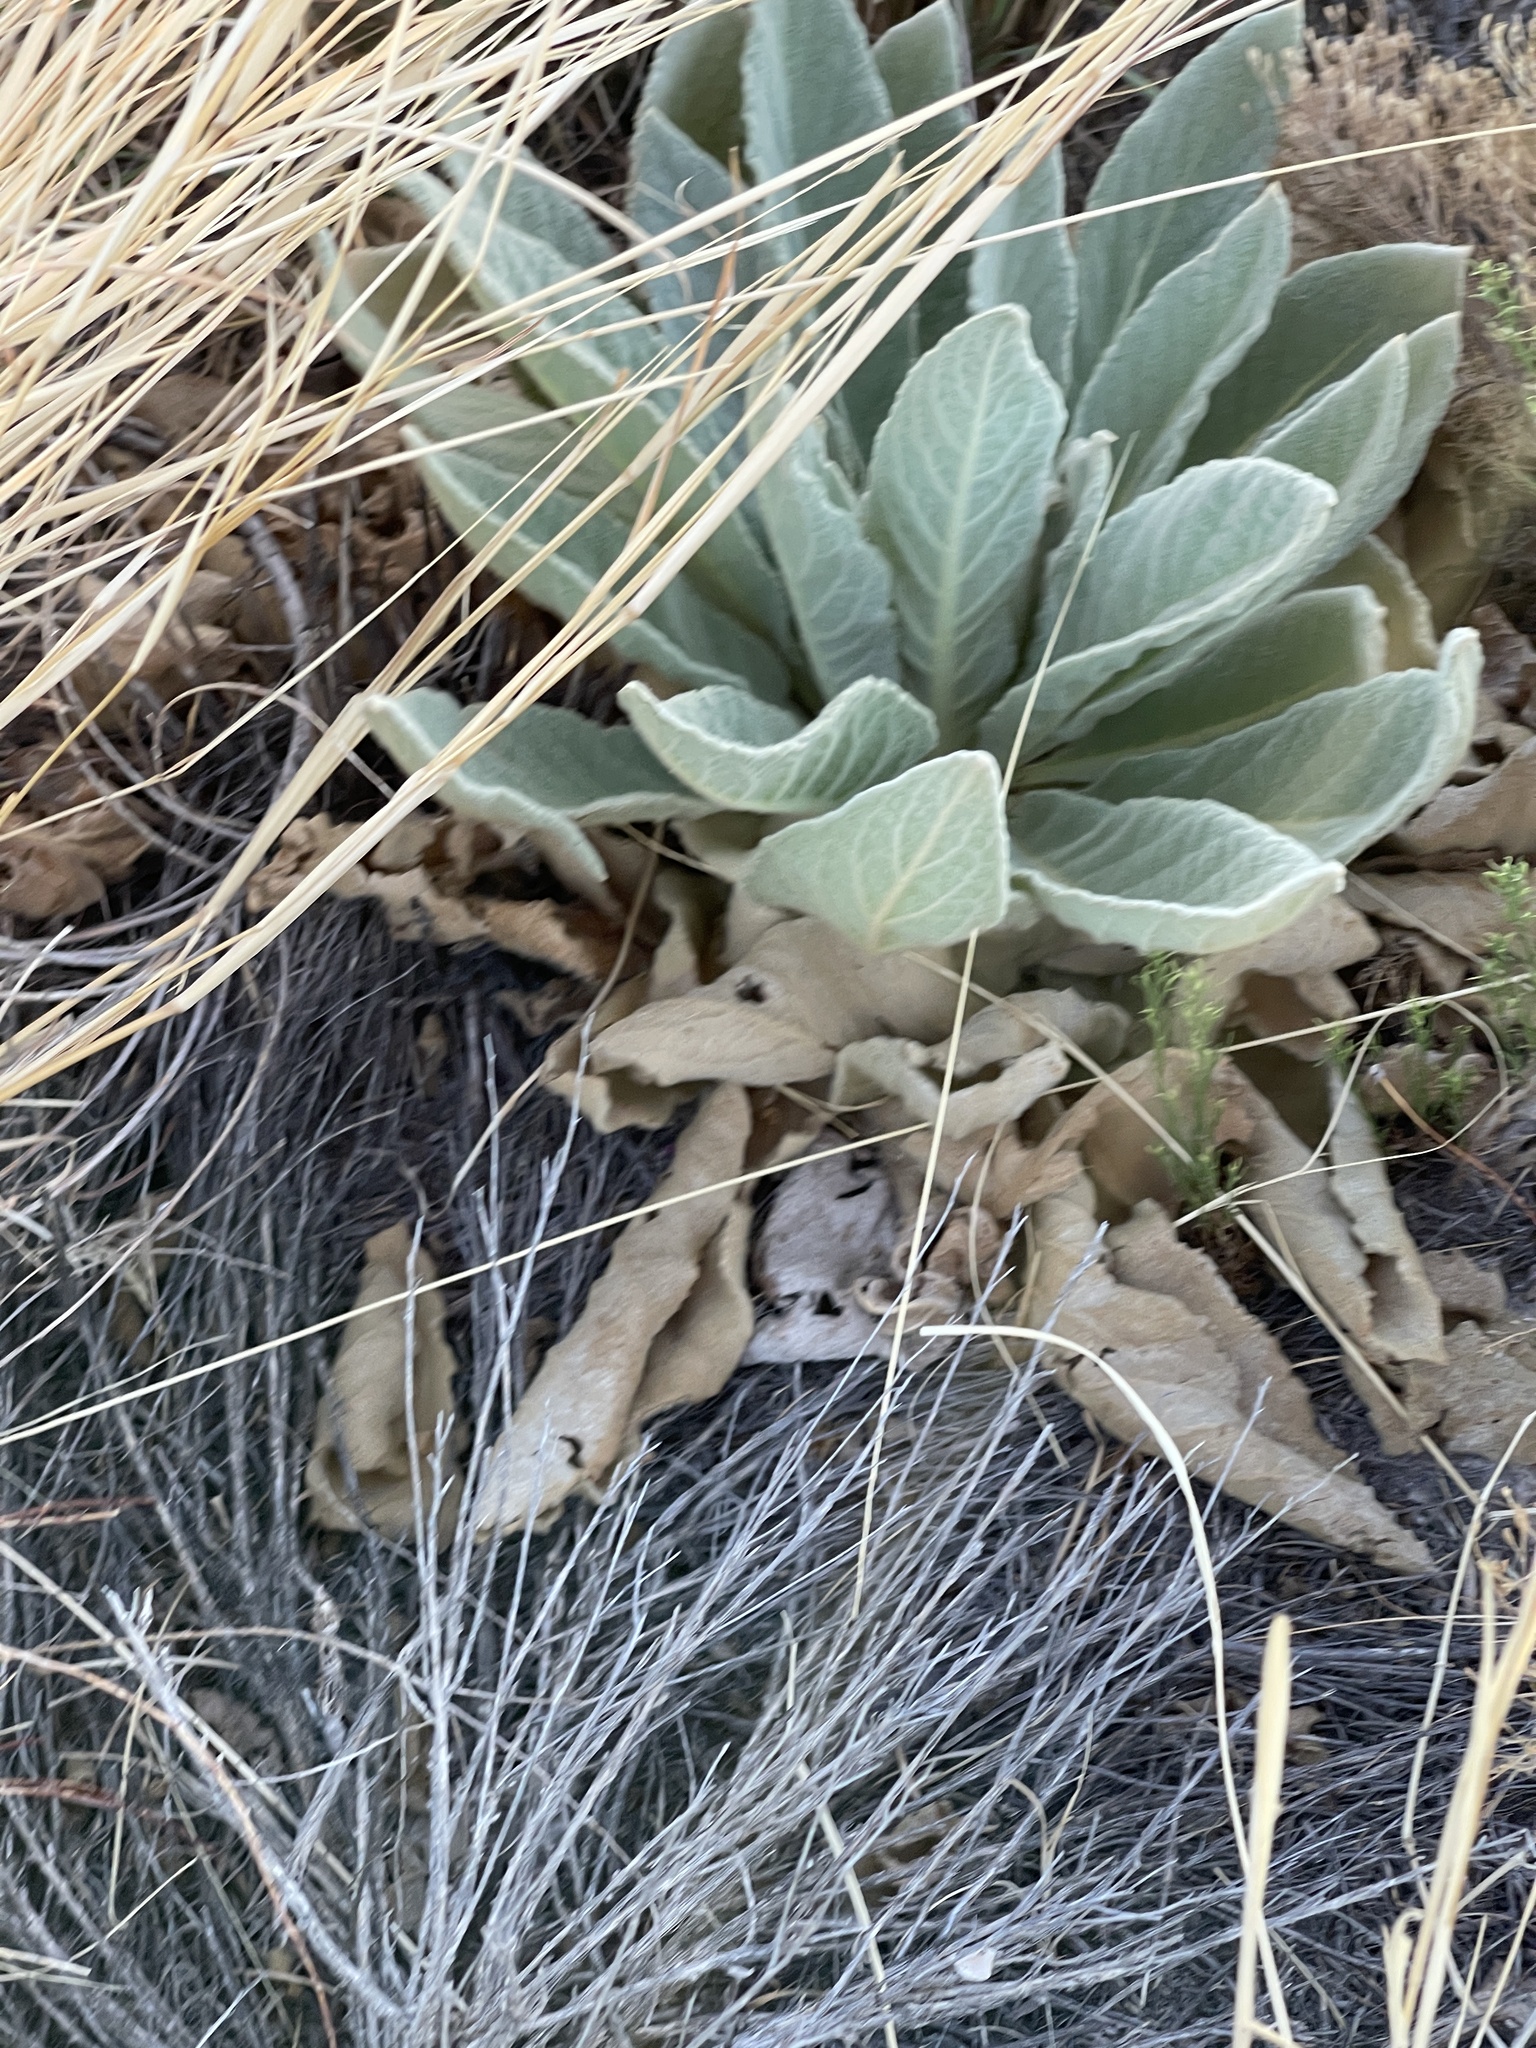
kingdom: Plantae
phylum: Tracheophyta
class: Magnoliopsida
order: Lamiales
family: Scrophulariaceae
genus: Verbascum
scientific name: Verbascum thapsus
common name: Common mullein
